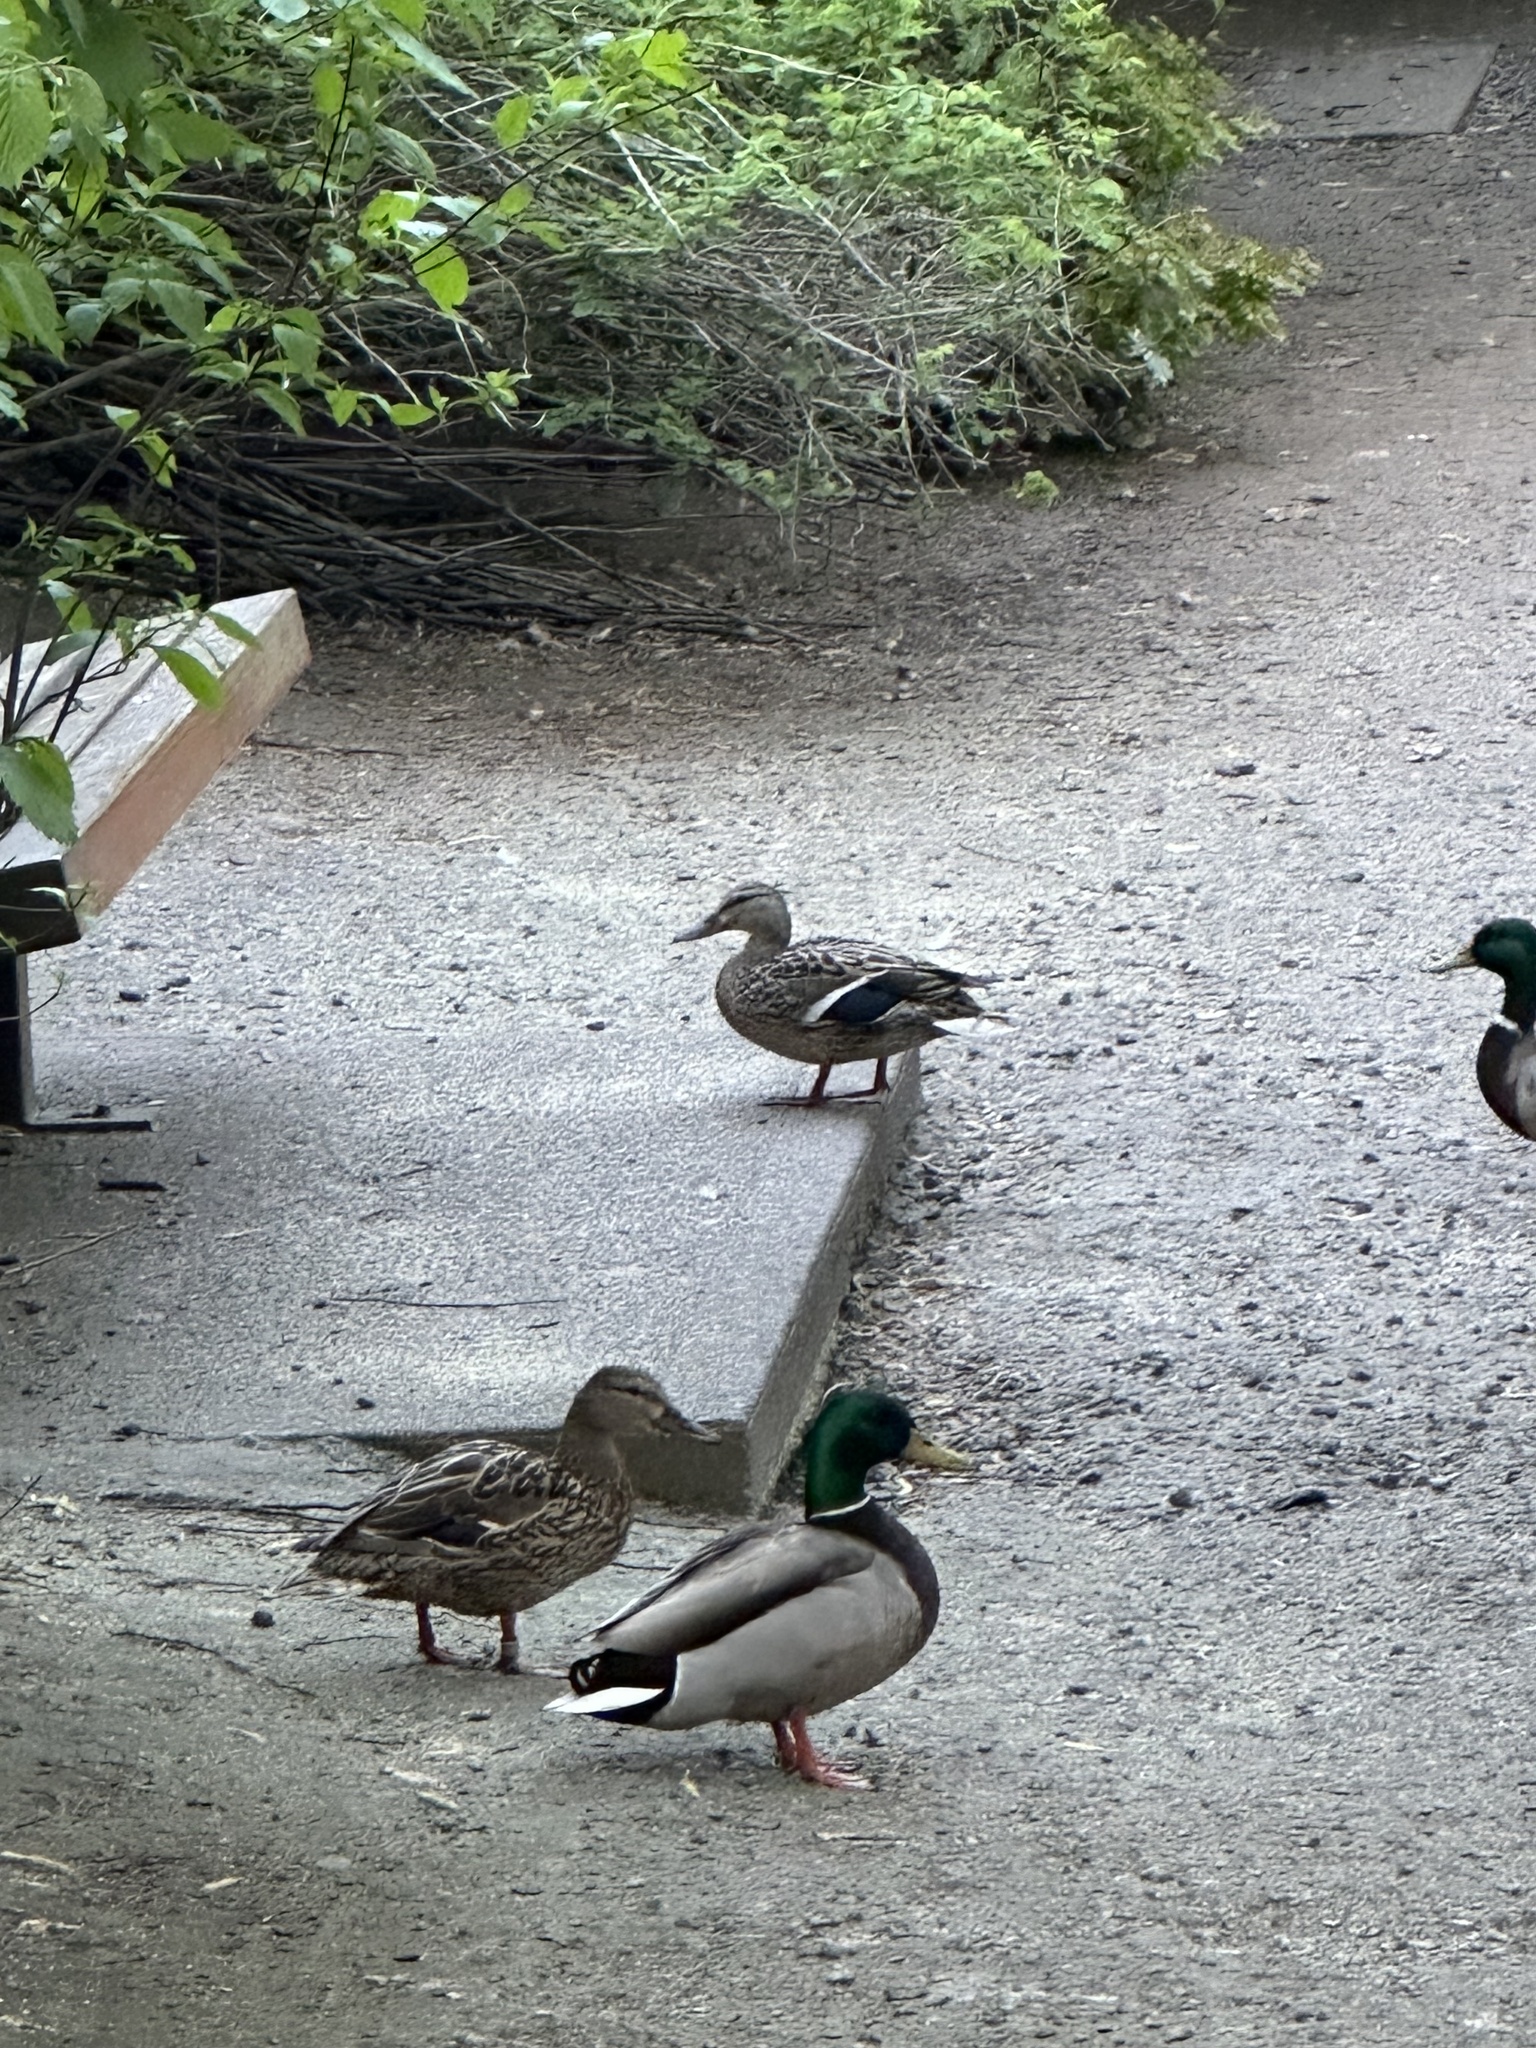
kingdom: Animalia
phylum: Chordata
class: Aves
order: Anseriformes
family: Anatidae
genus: Anas
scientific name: Anas platyrhynchos
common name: Mallard
